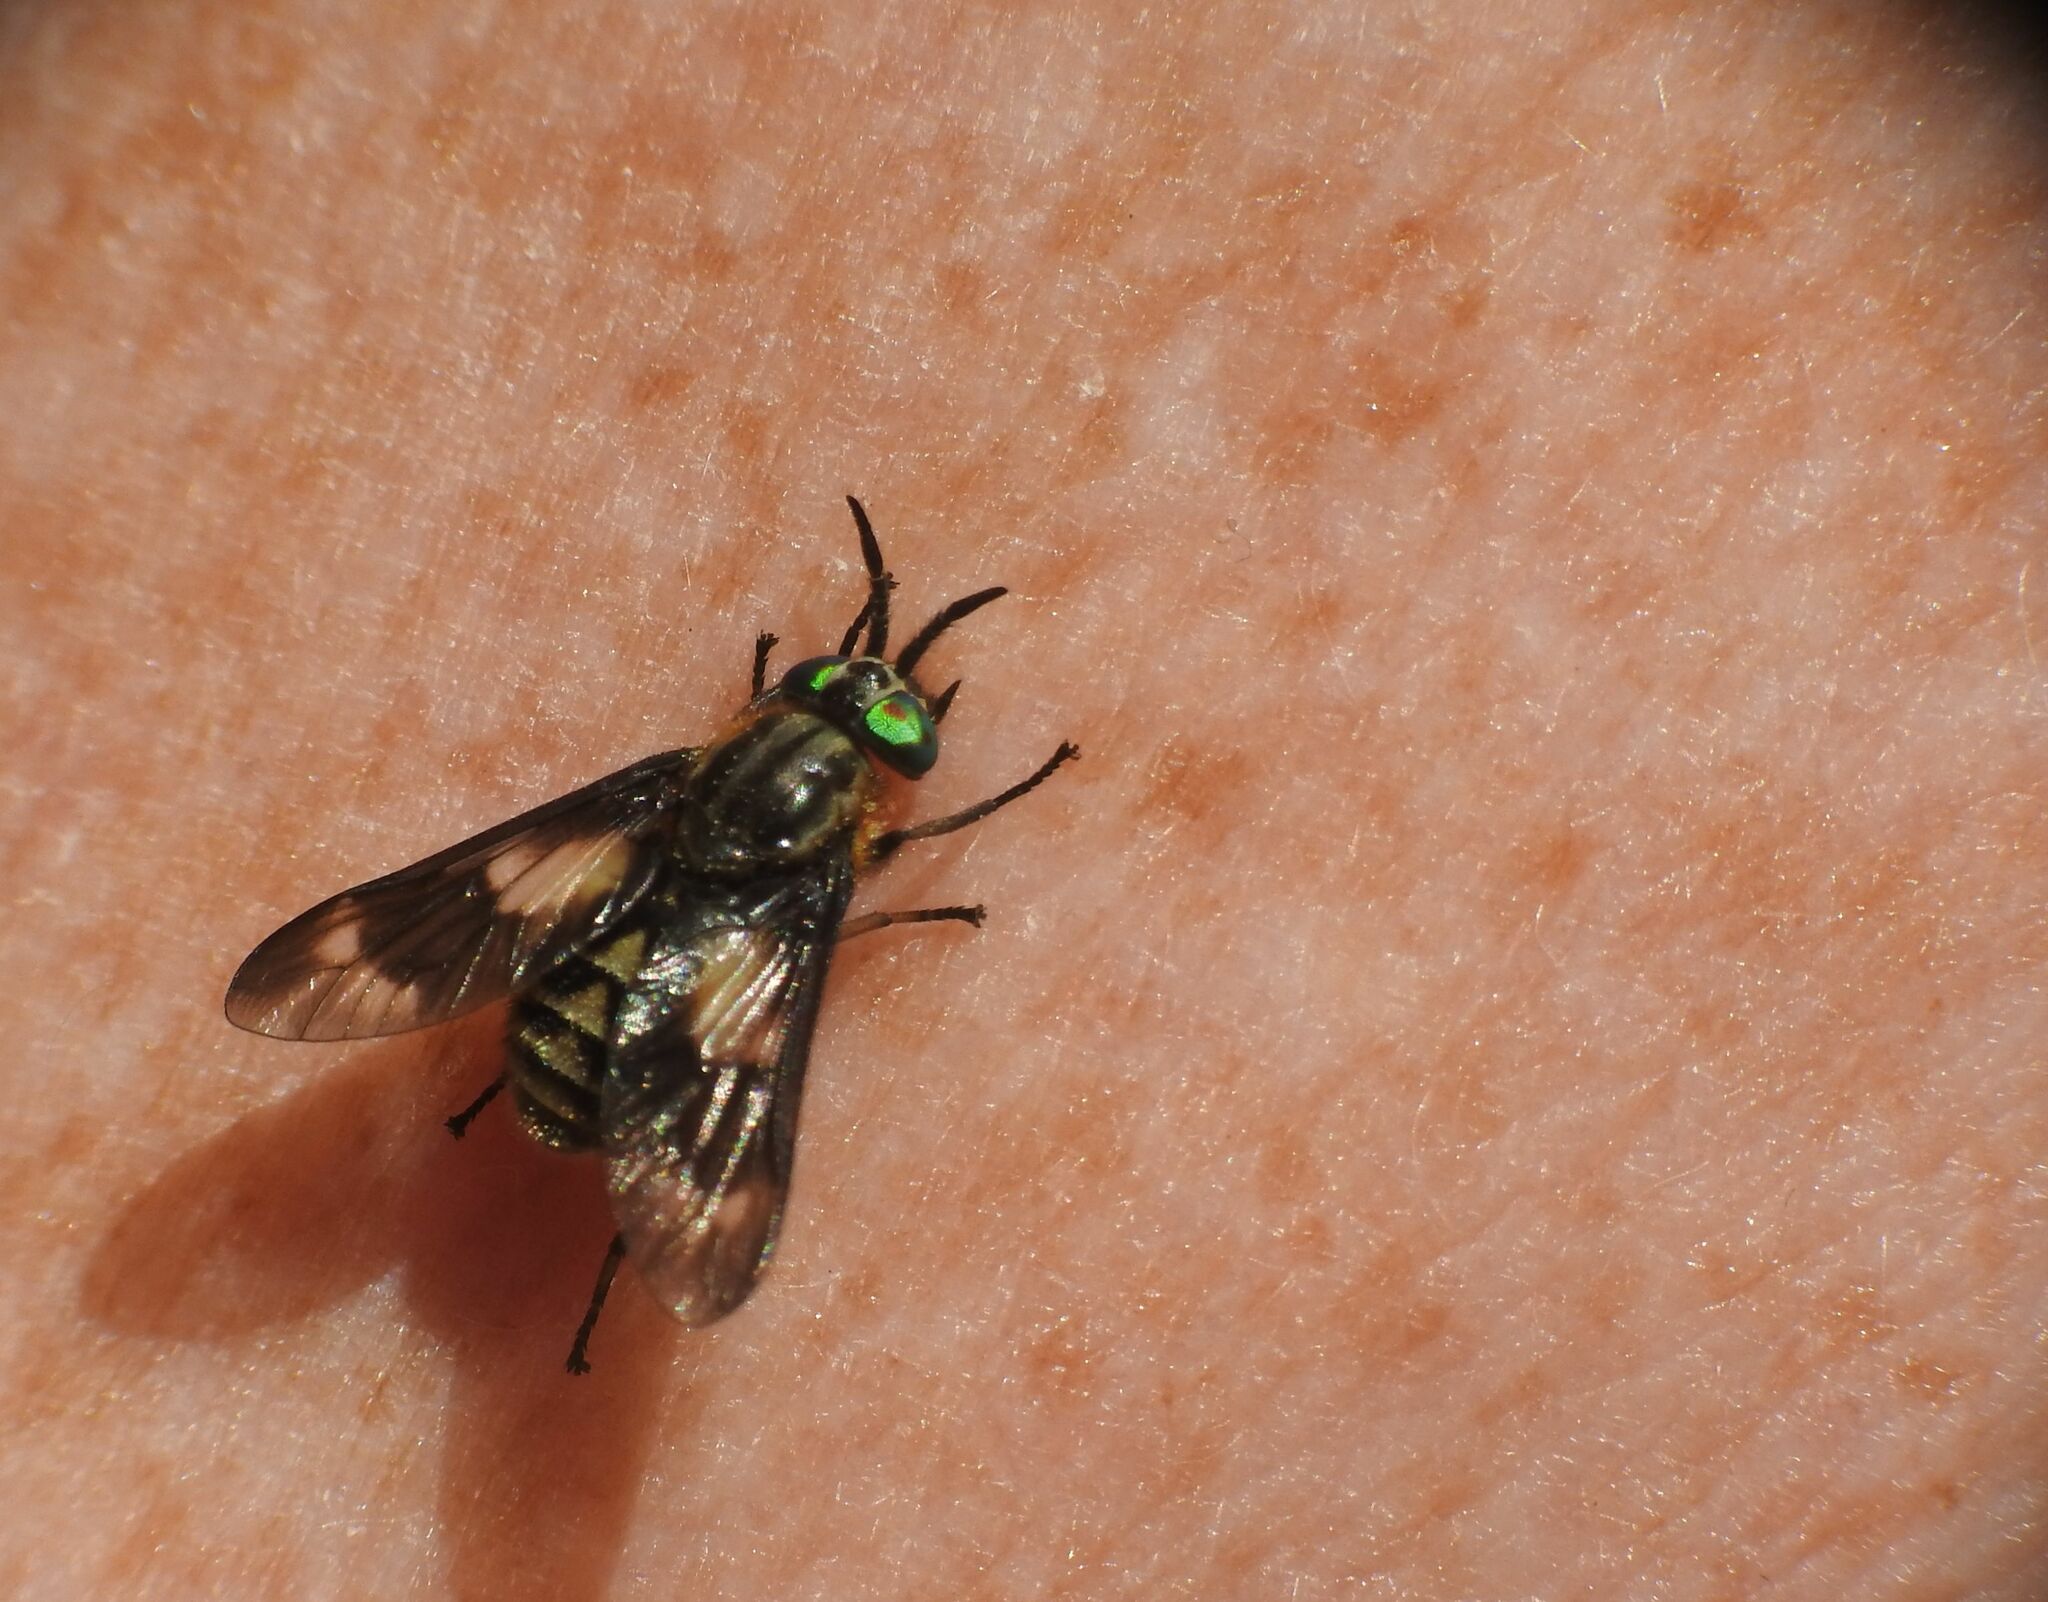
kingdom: Animalia
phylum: Arthropoda
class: Insecta
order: Diptera
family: Tabanidae
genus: Chrysops
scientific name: Chrysops relictus
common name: Twin-lobed deerfly
